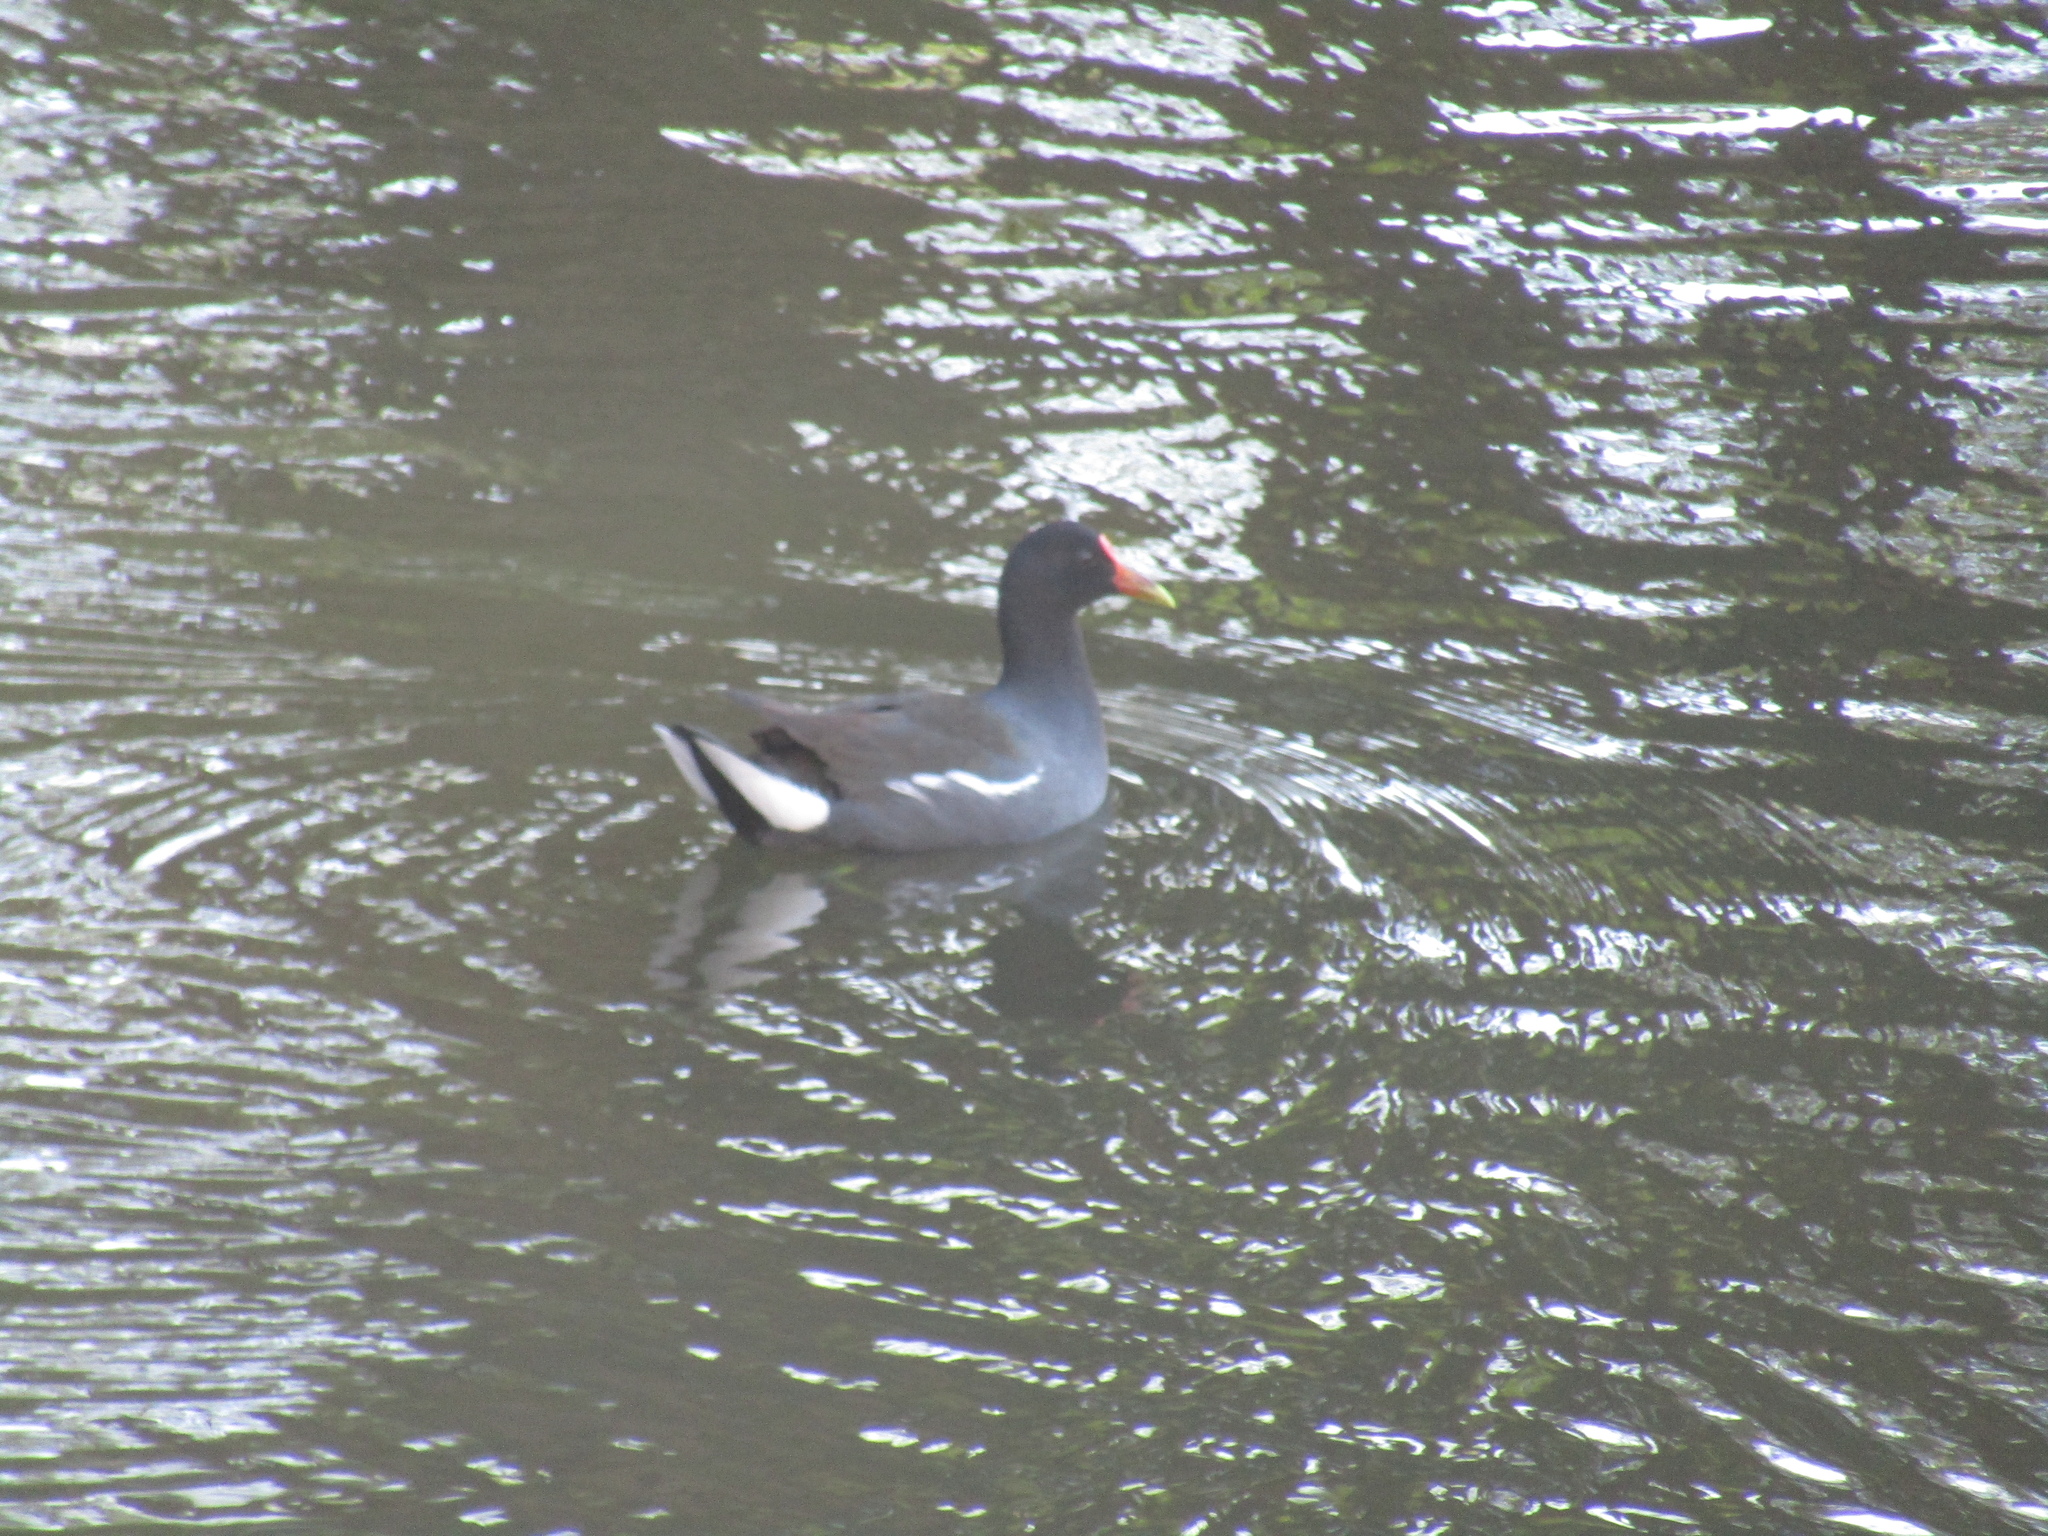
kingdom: Animalia
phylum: Chordata
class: Aves
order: Gruiformes
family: Rallidae
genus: Gallinula
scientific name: Gallinula chloropus
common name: Common moorhen
